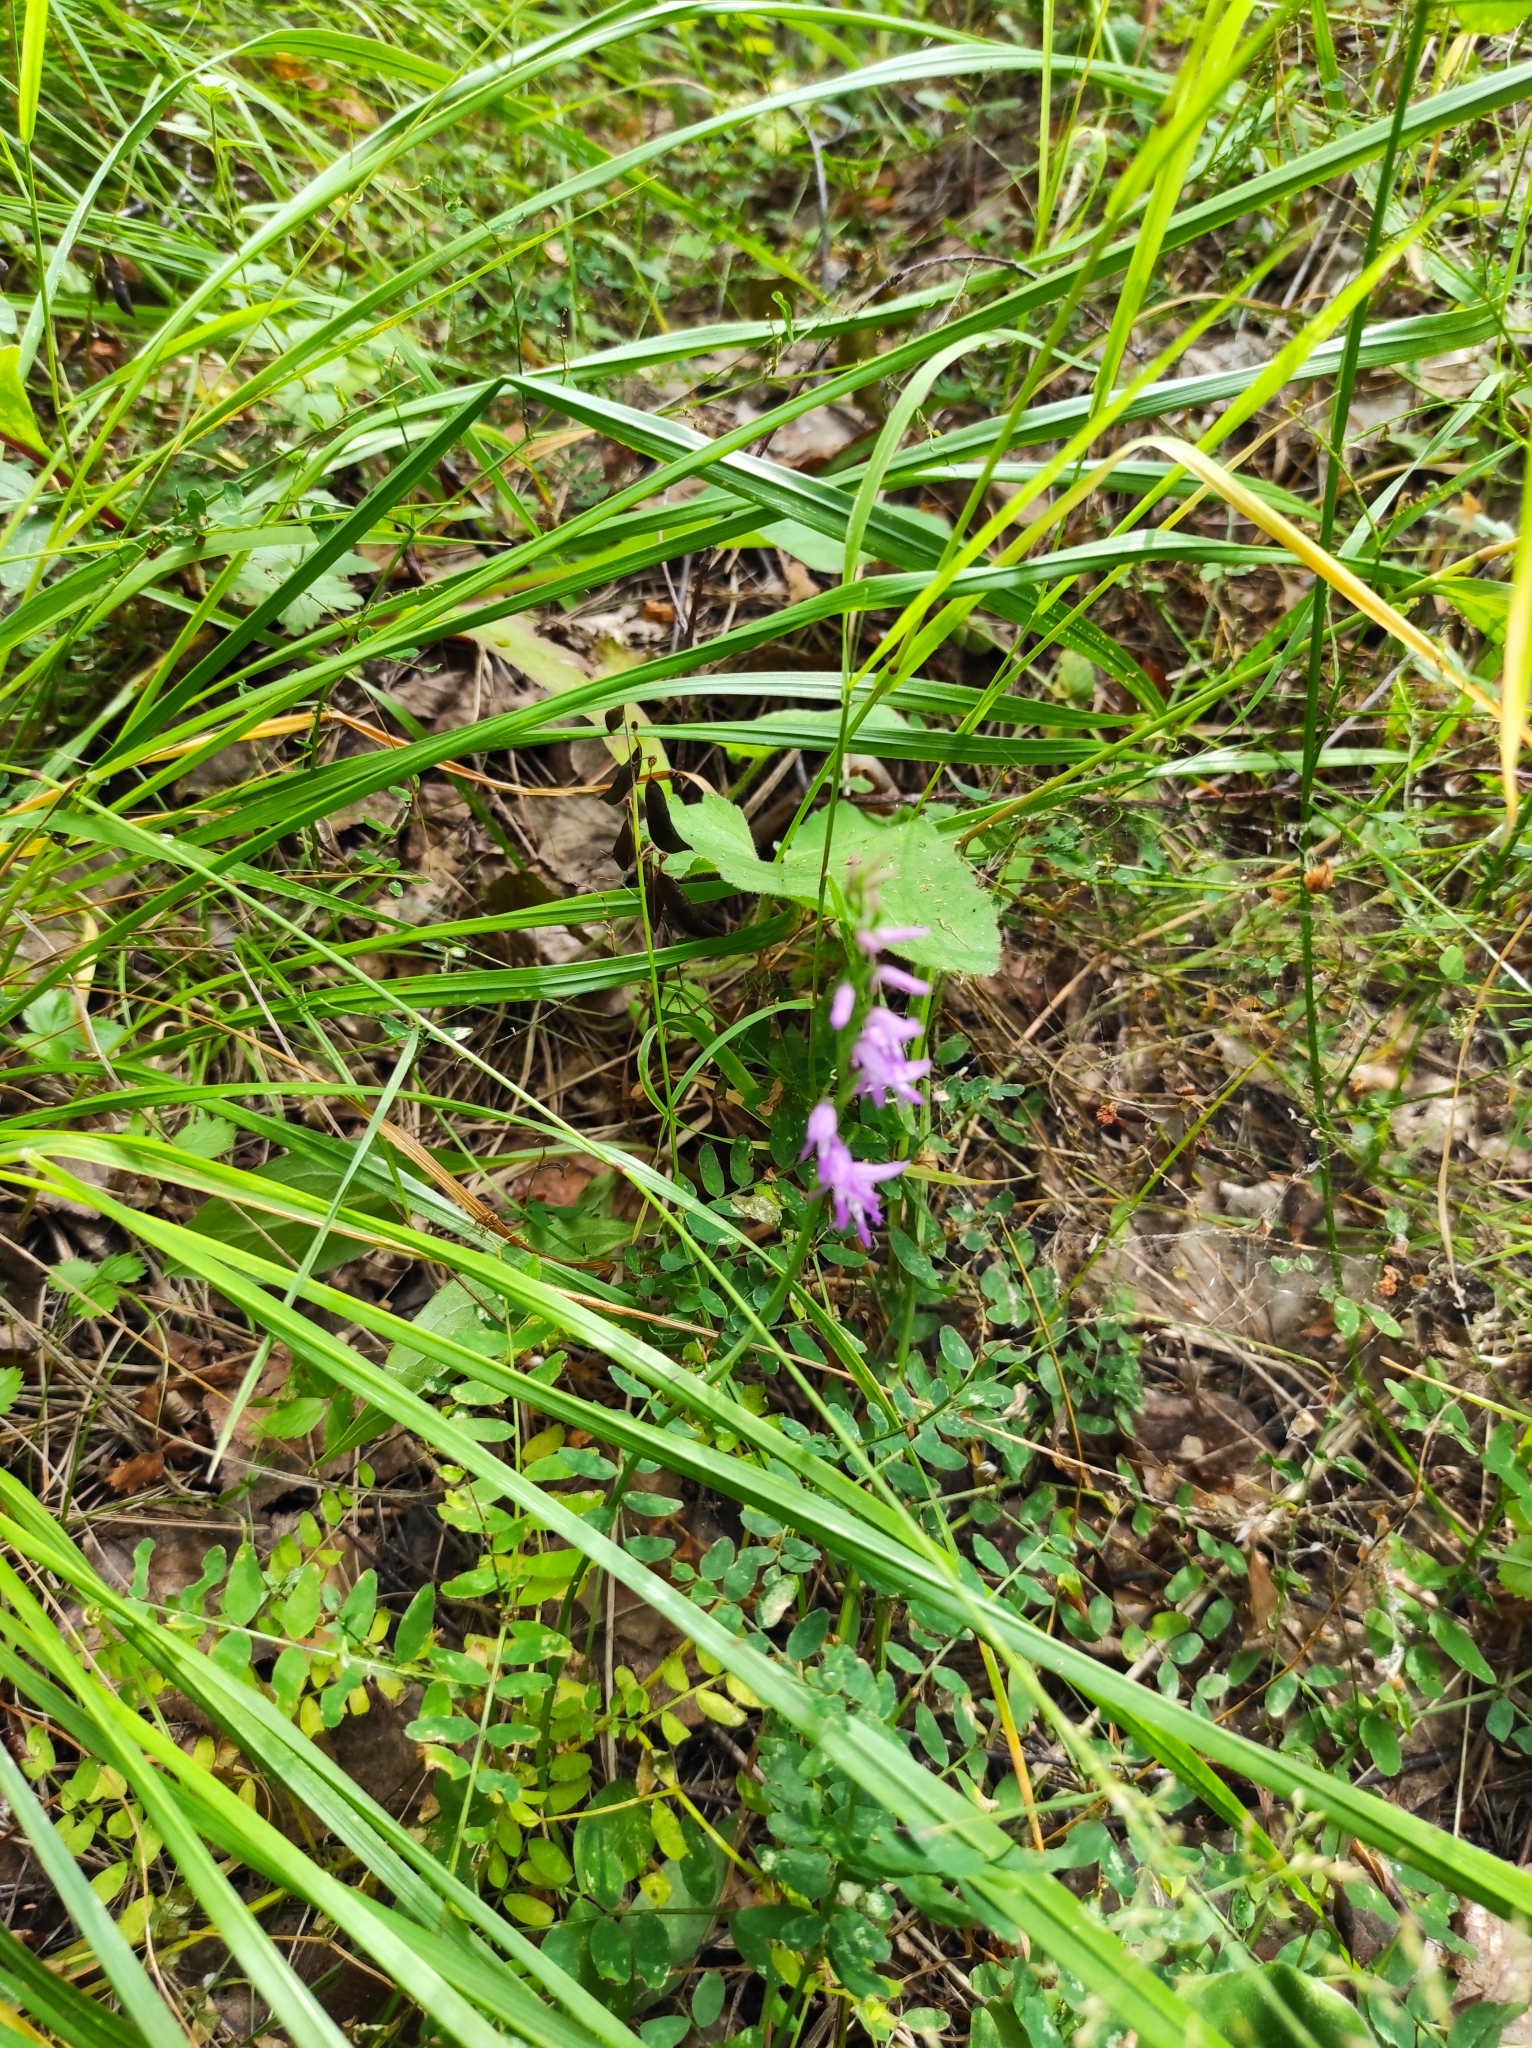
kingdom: Plantae
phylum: Tracheophyta
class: Liliopsida
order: Asparagales
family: Orchidaceae
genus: Hemipilia
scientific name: Hemipilia cucullata
